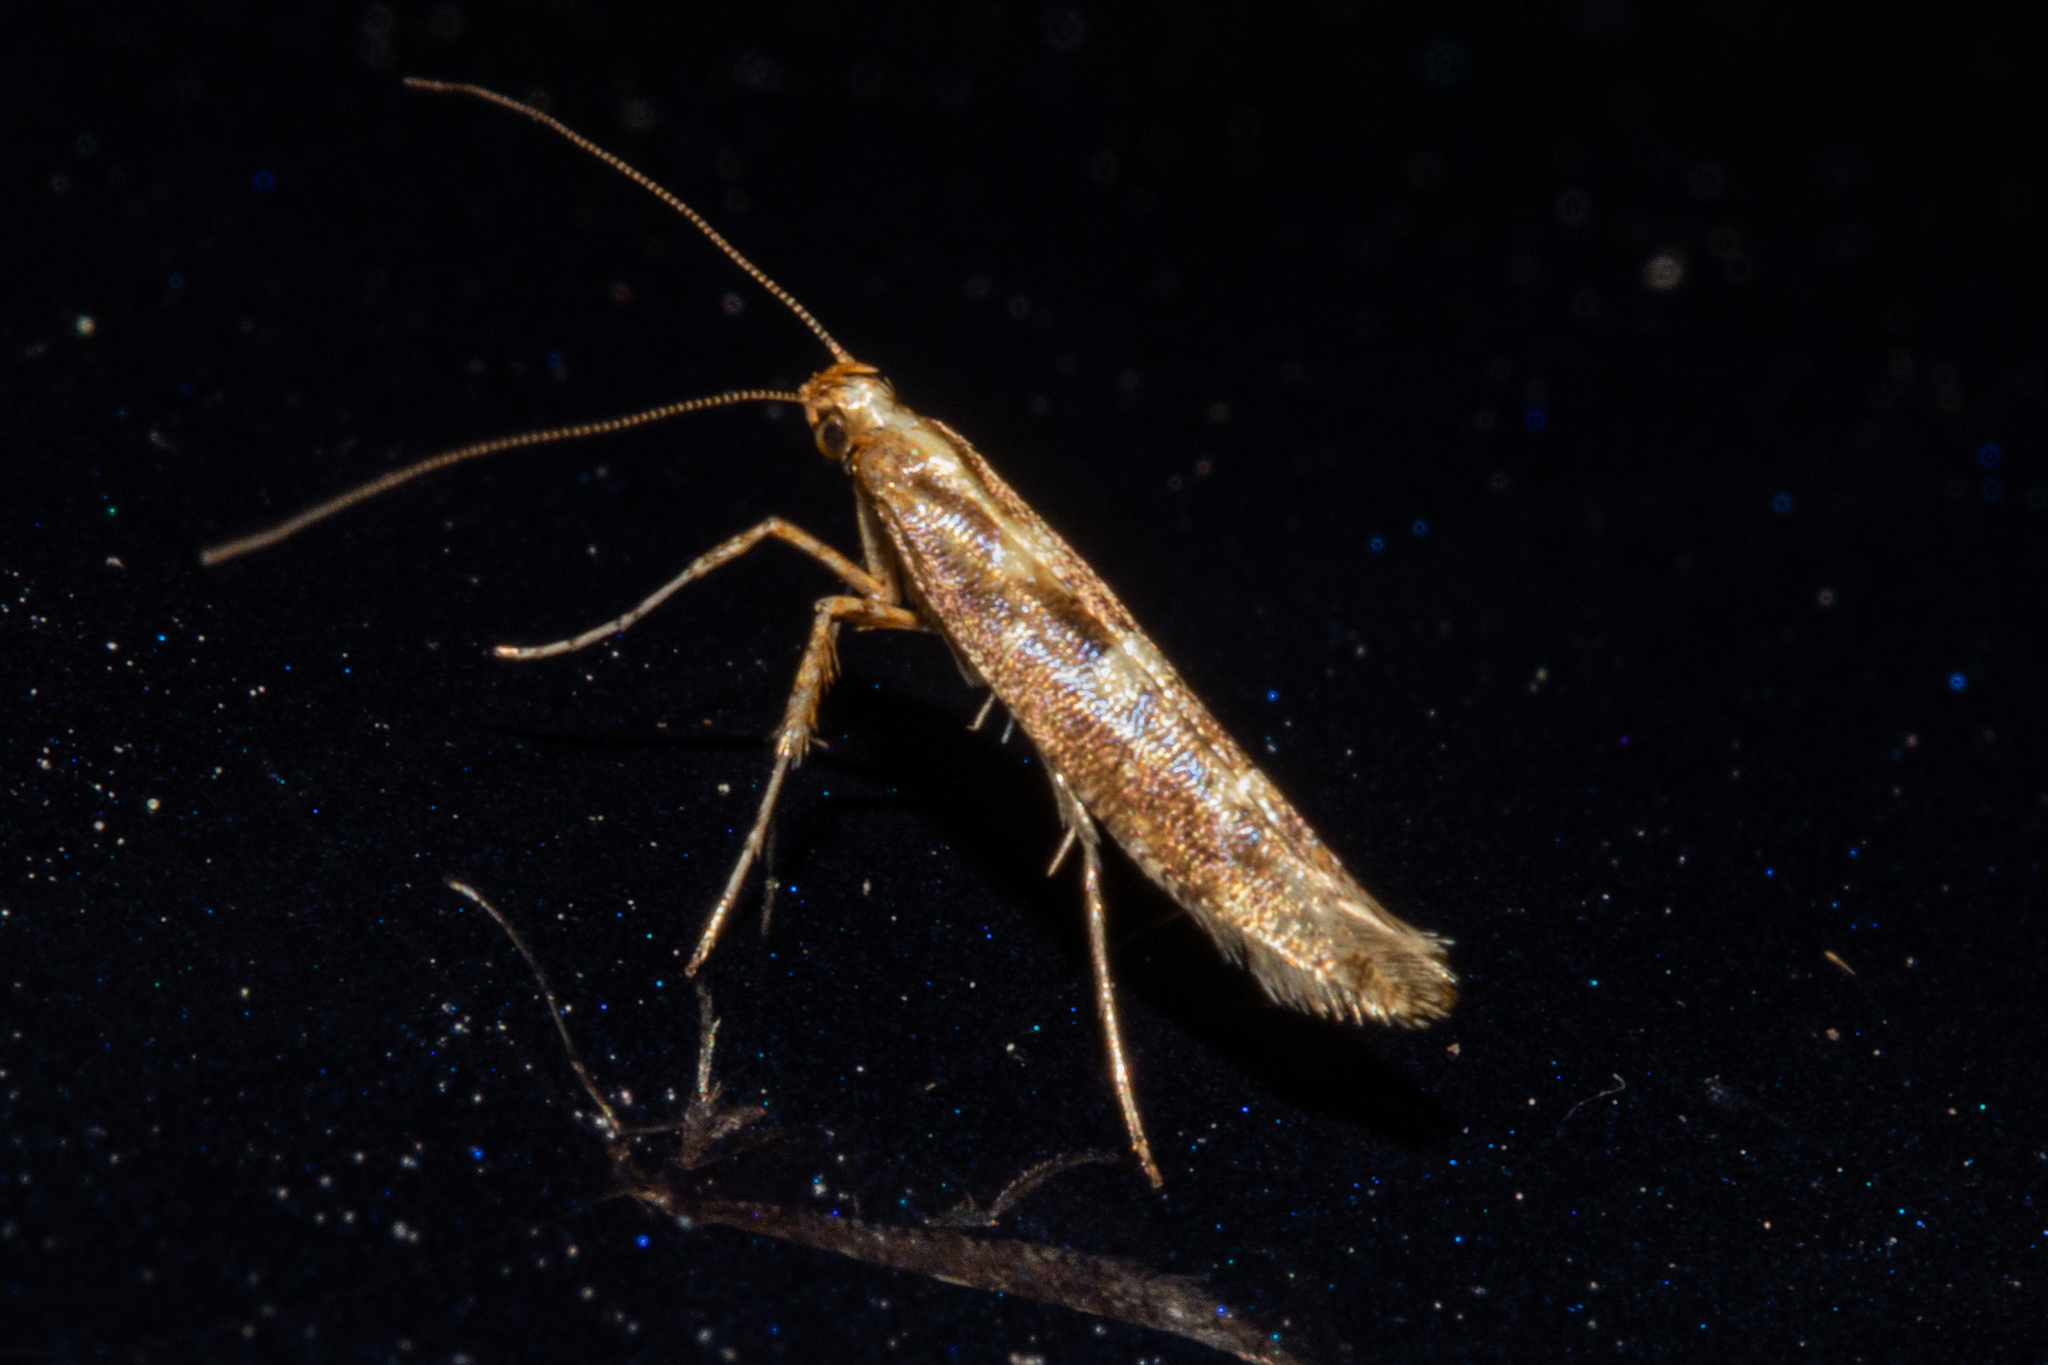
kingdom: Animalia
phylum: Arthropoda
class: Insecta
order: Lepidoptera
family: Gracillariidae
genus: Caloptilia
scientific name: Caloptilia selenitis
